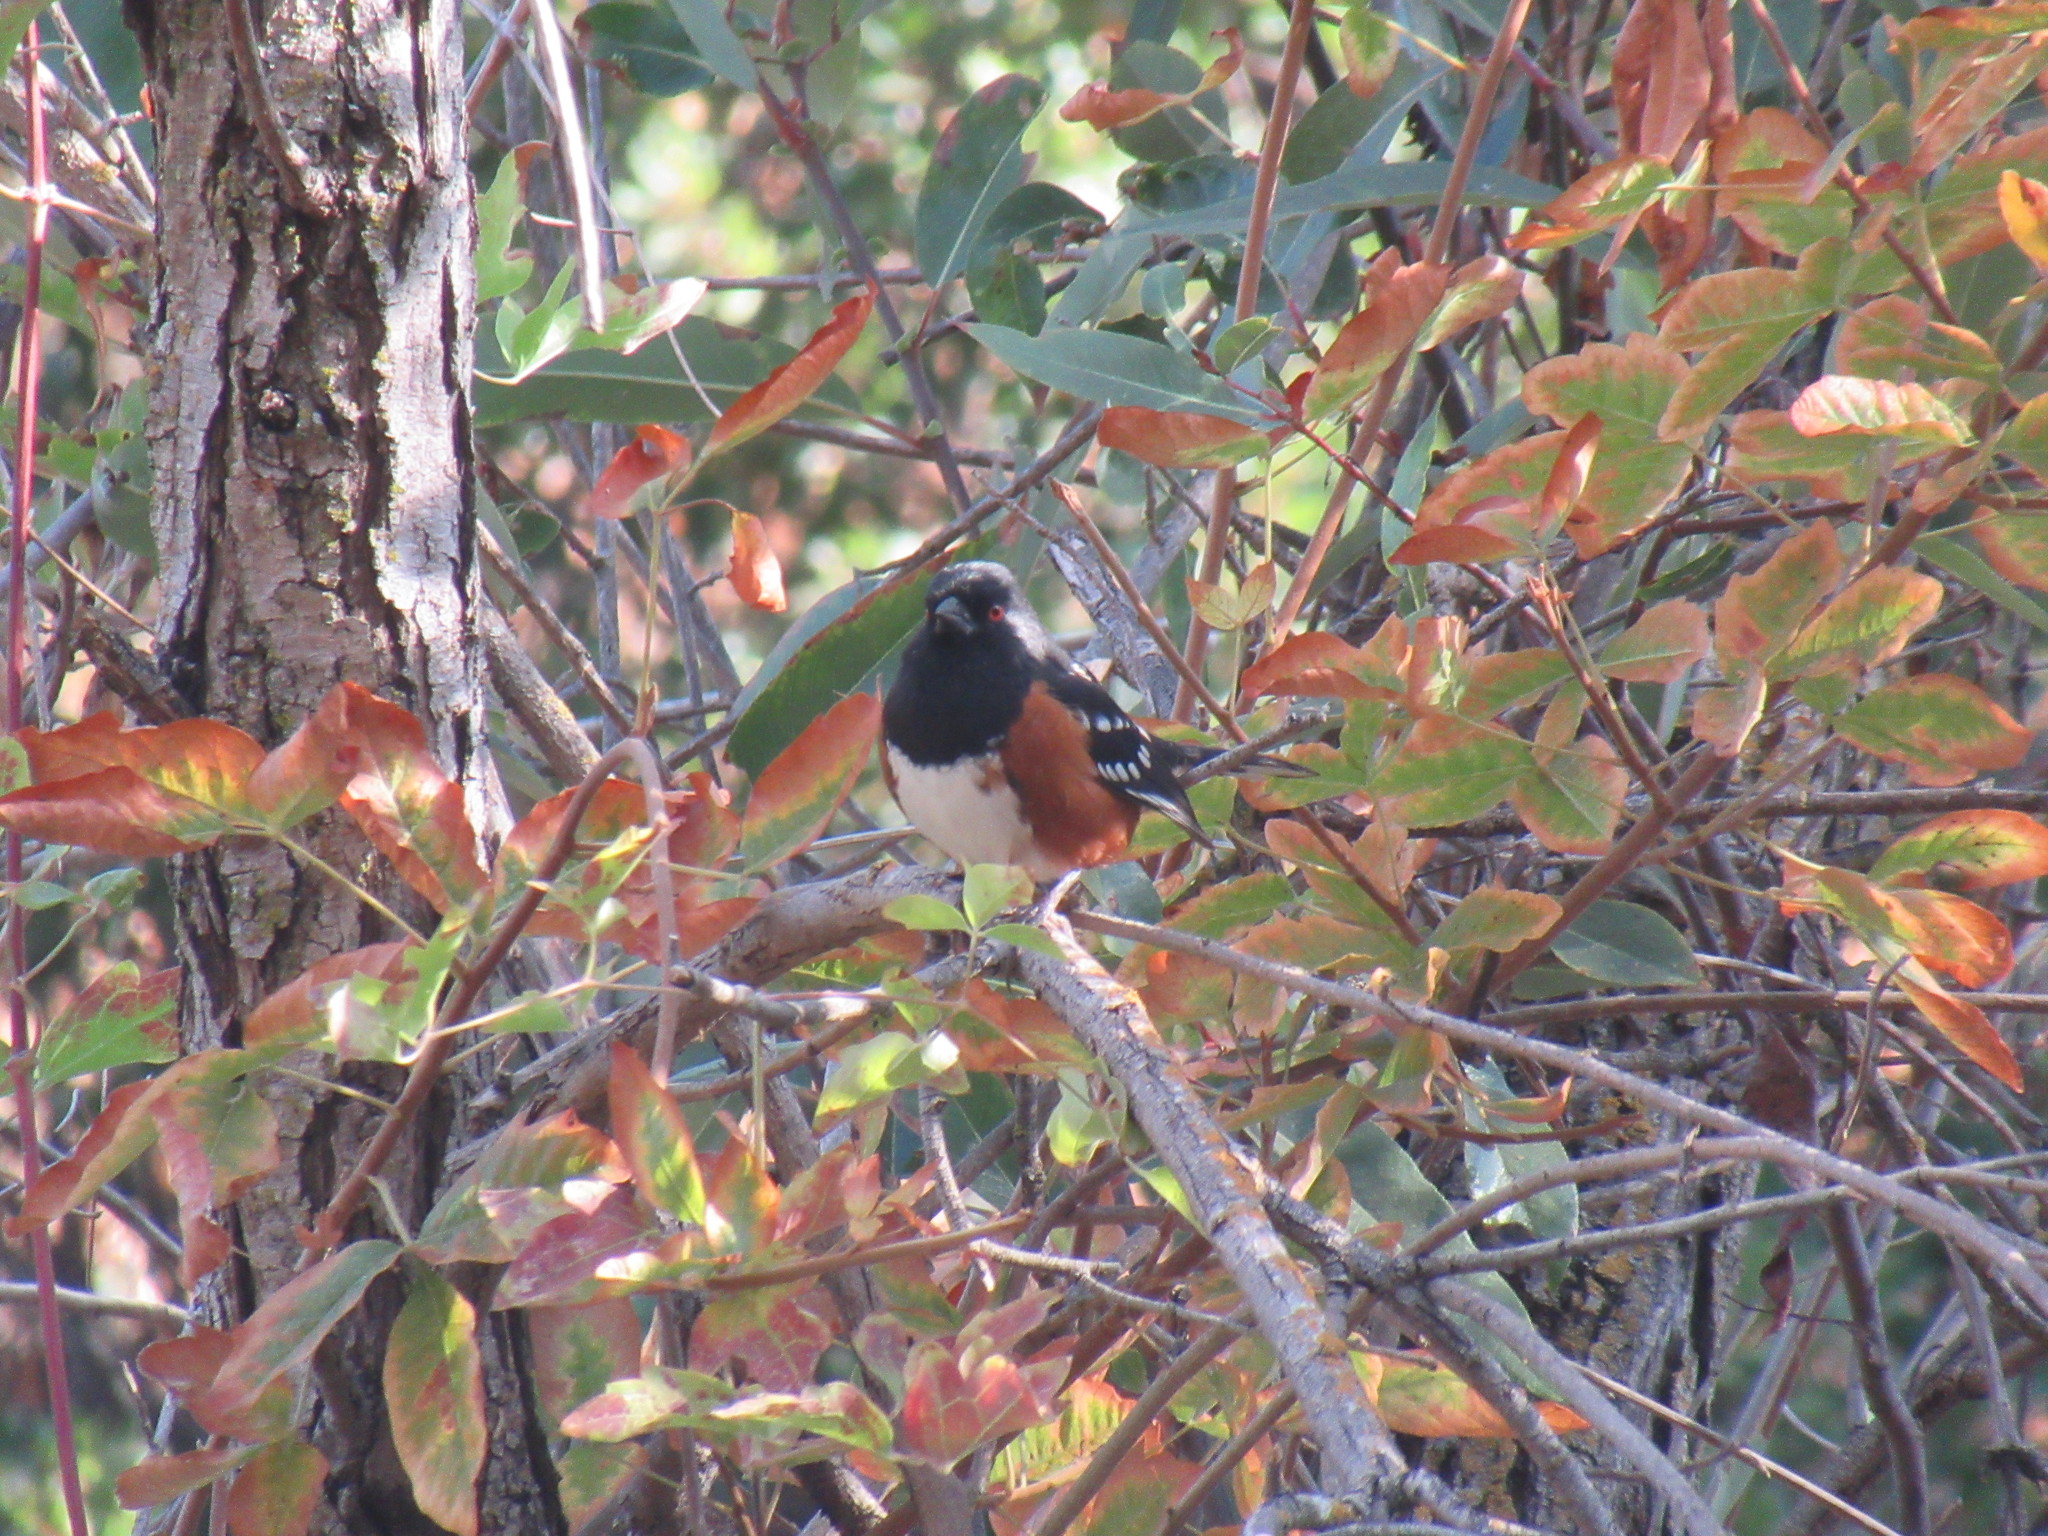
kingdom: Animalia
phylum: Chordata
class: Aves
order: Passeriformes
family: Passerellidae
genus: Pipilo
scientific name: Pipilo maculatus
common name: Spotted towhee
